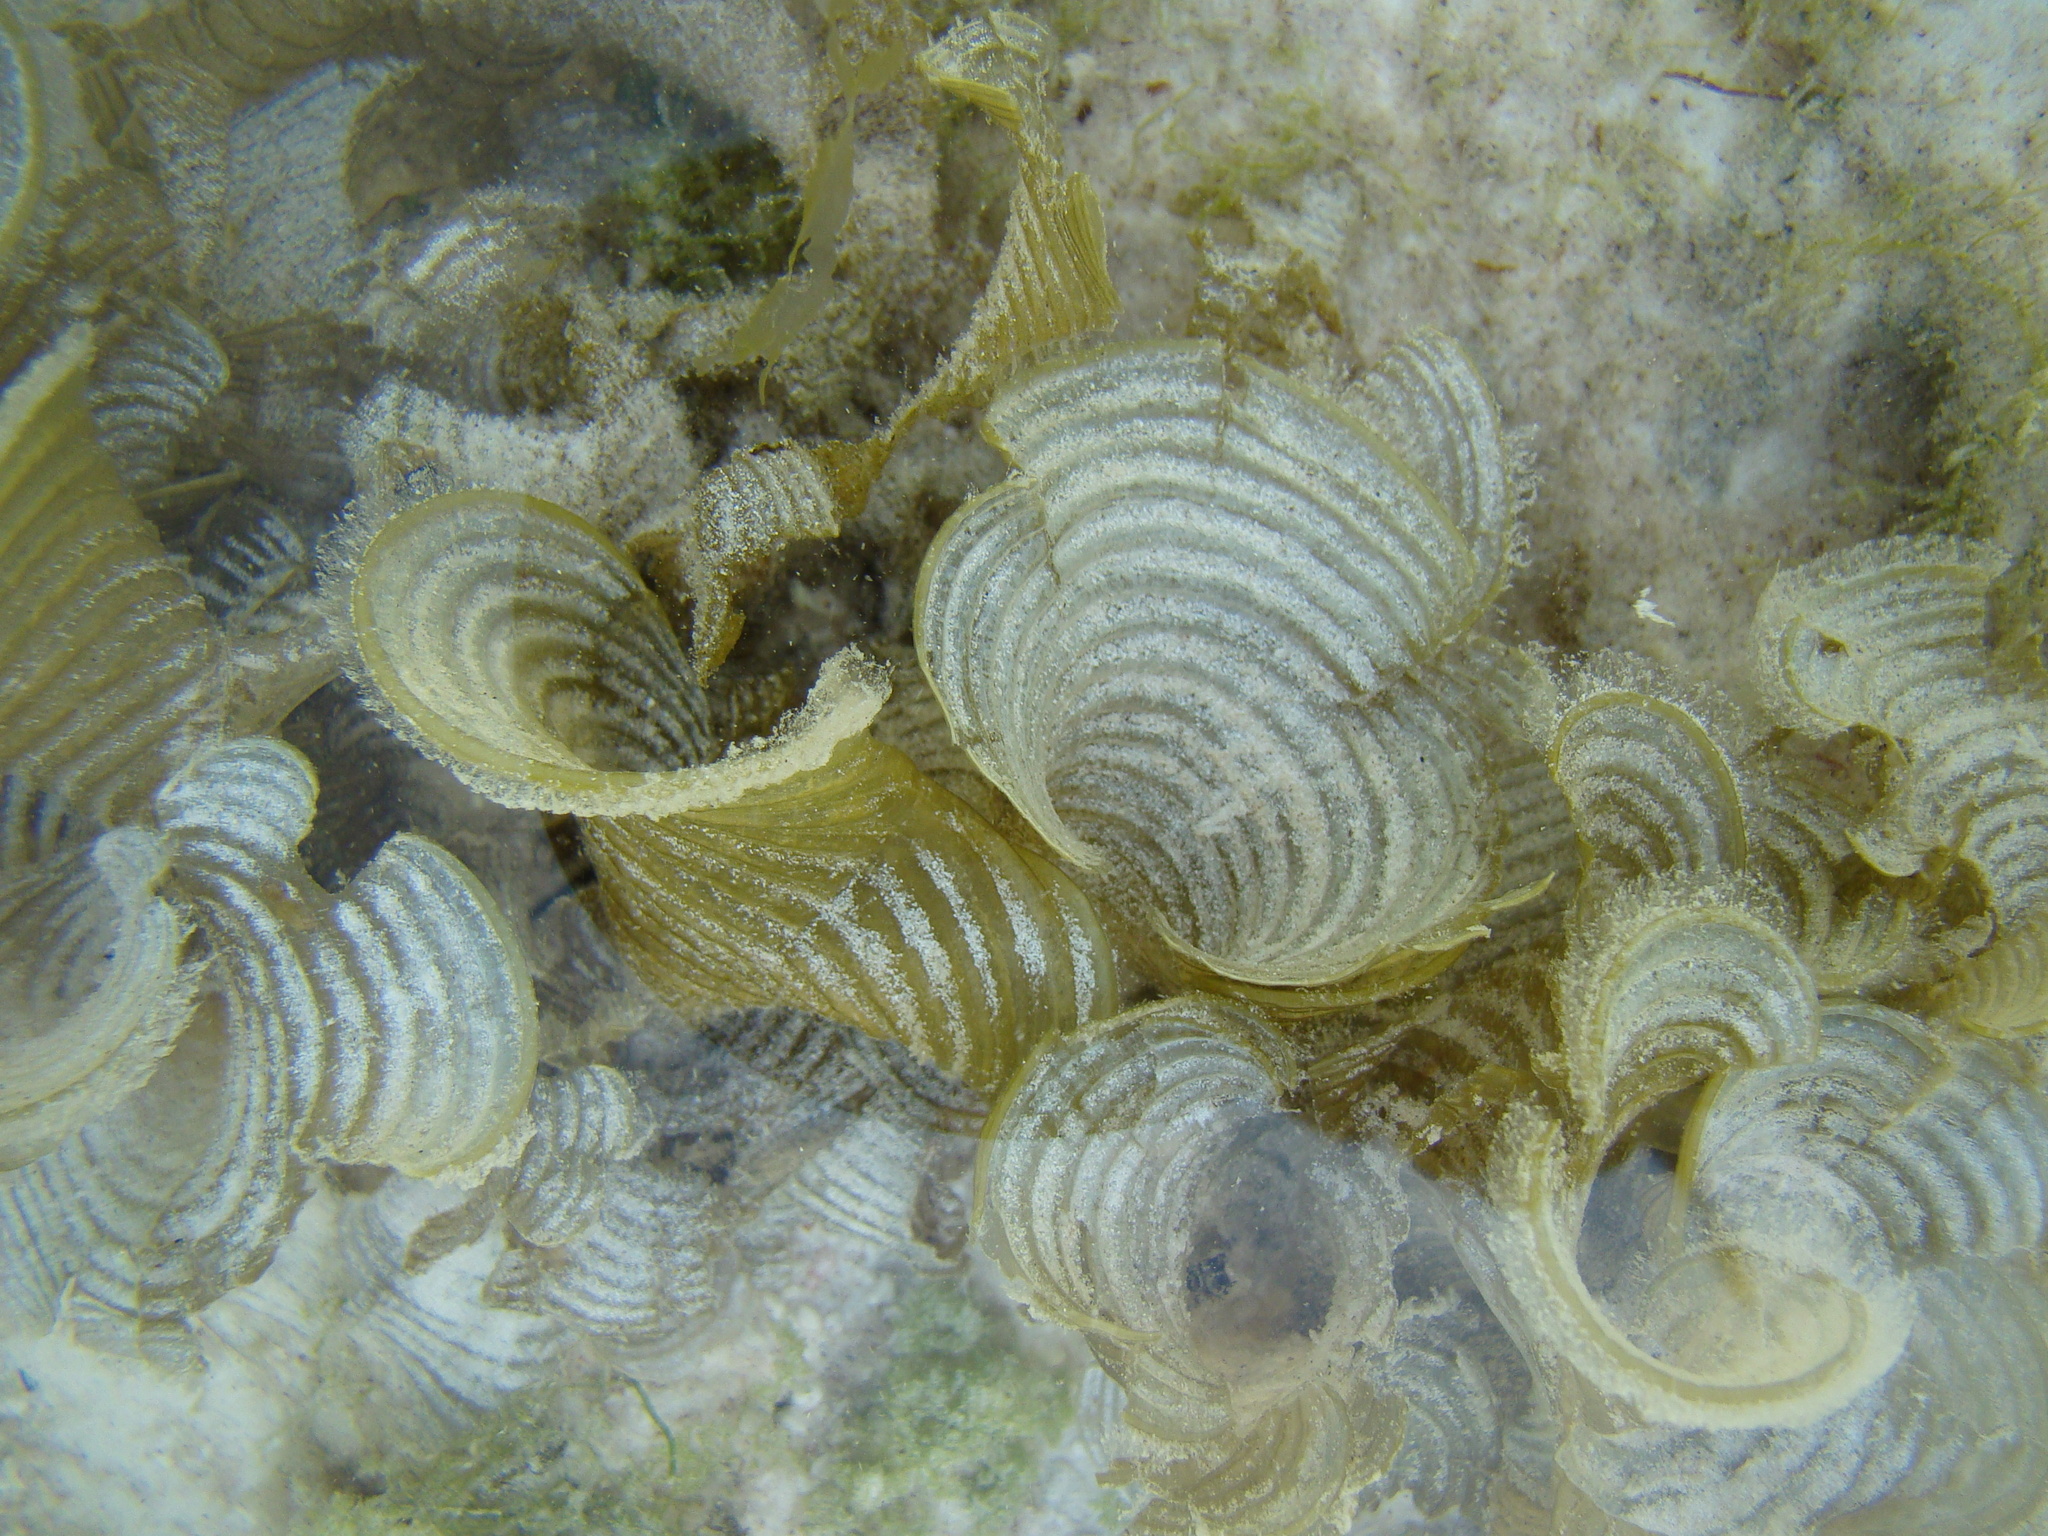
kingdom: Chromista
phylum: Ochrophyta
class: Phaeophyceae
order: Dictyotales
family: Dictyotaceae
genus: Padina
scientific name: Padina pavonica
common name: Turkey feather alga
